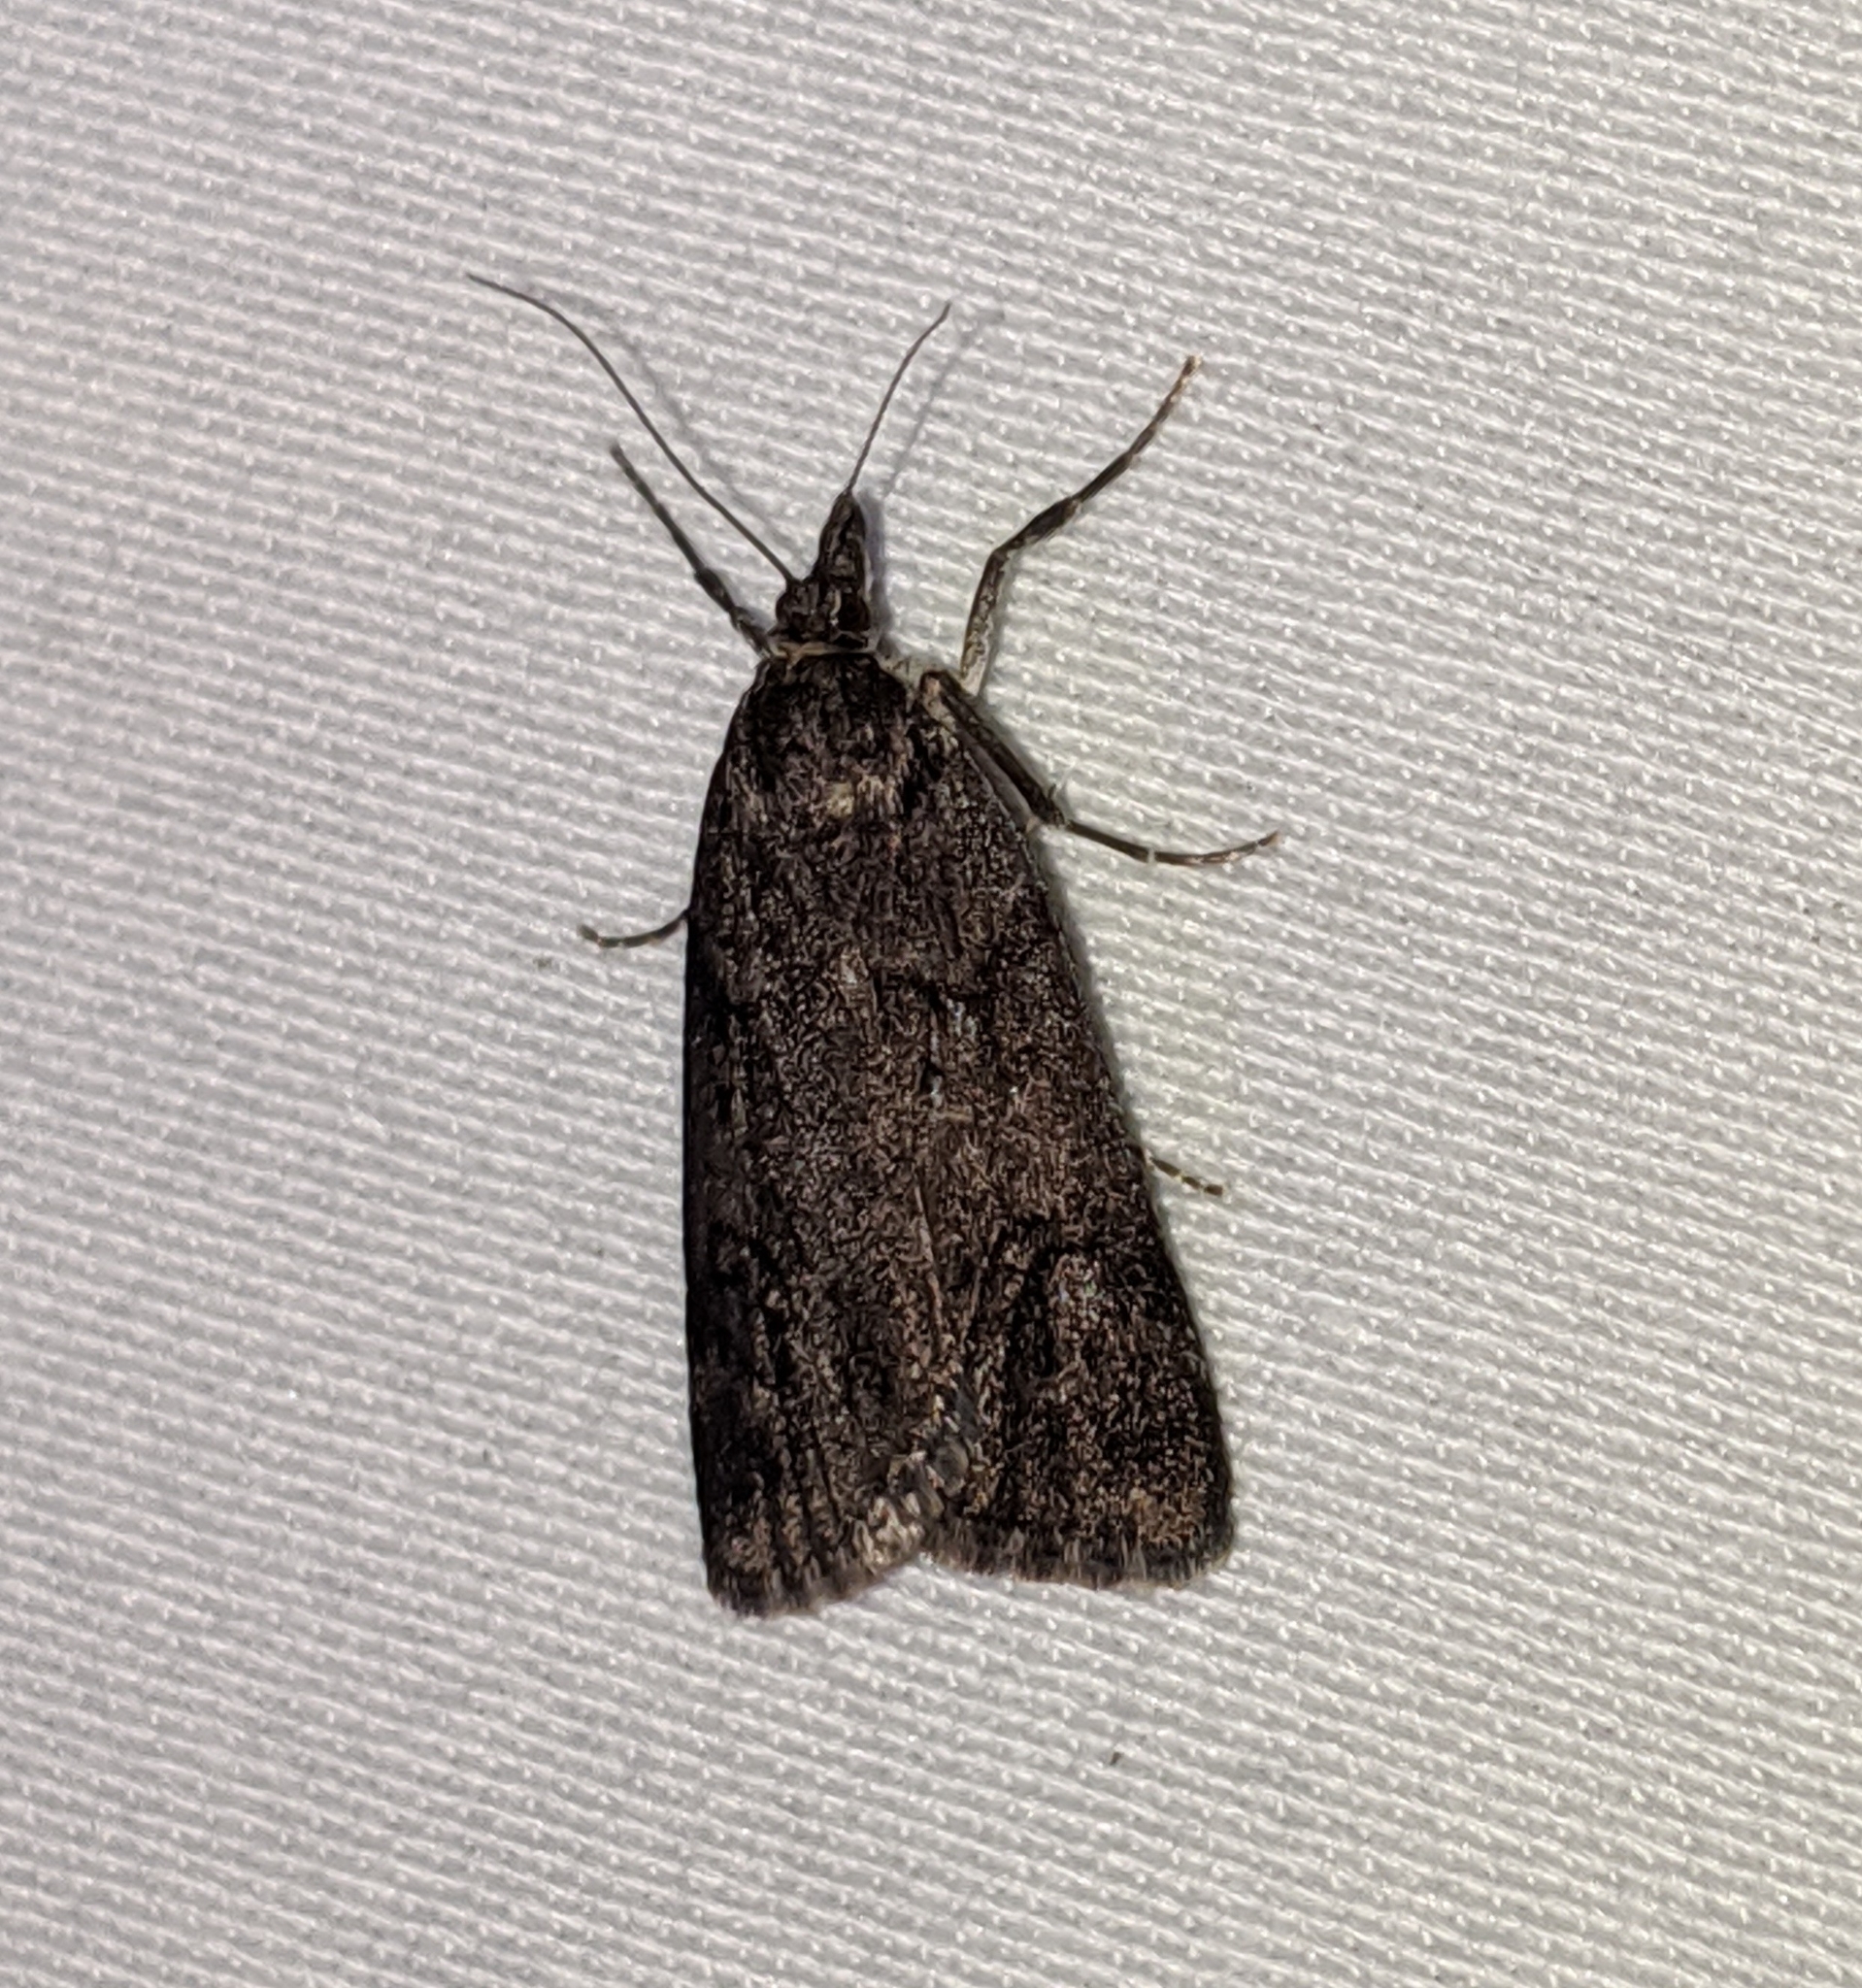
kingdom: Animalia
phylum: Arthropoda
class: Insecta
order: Lepidoptera
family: Crambidae
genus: Gesneria
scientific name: Gesneria centuriella
